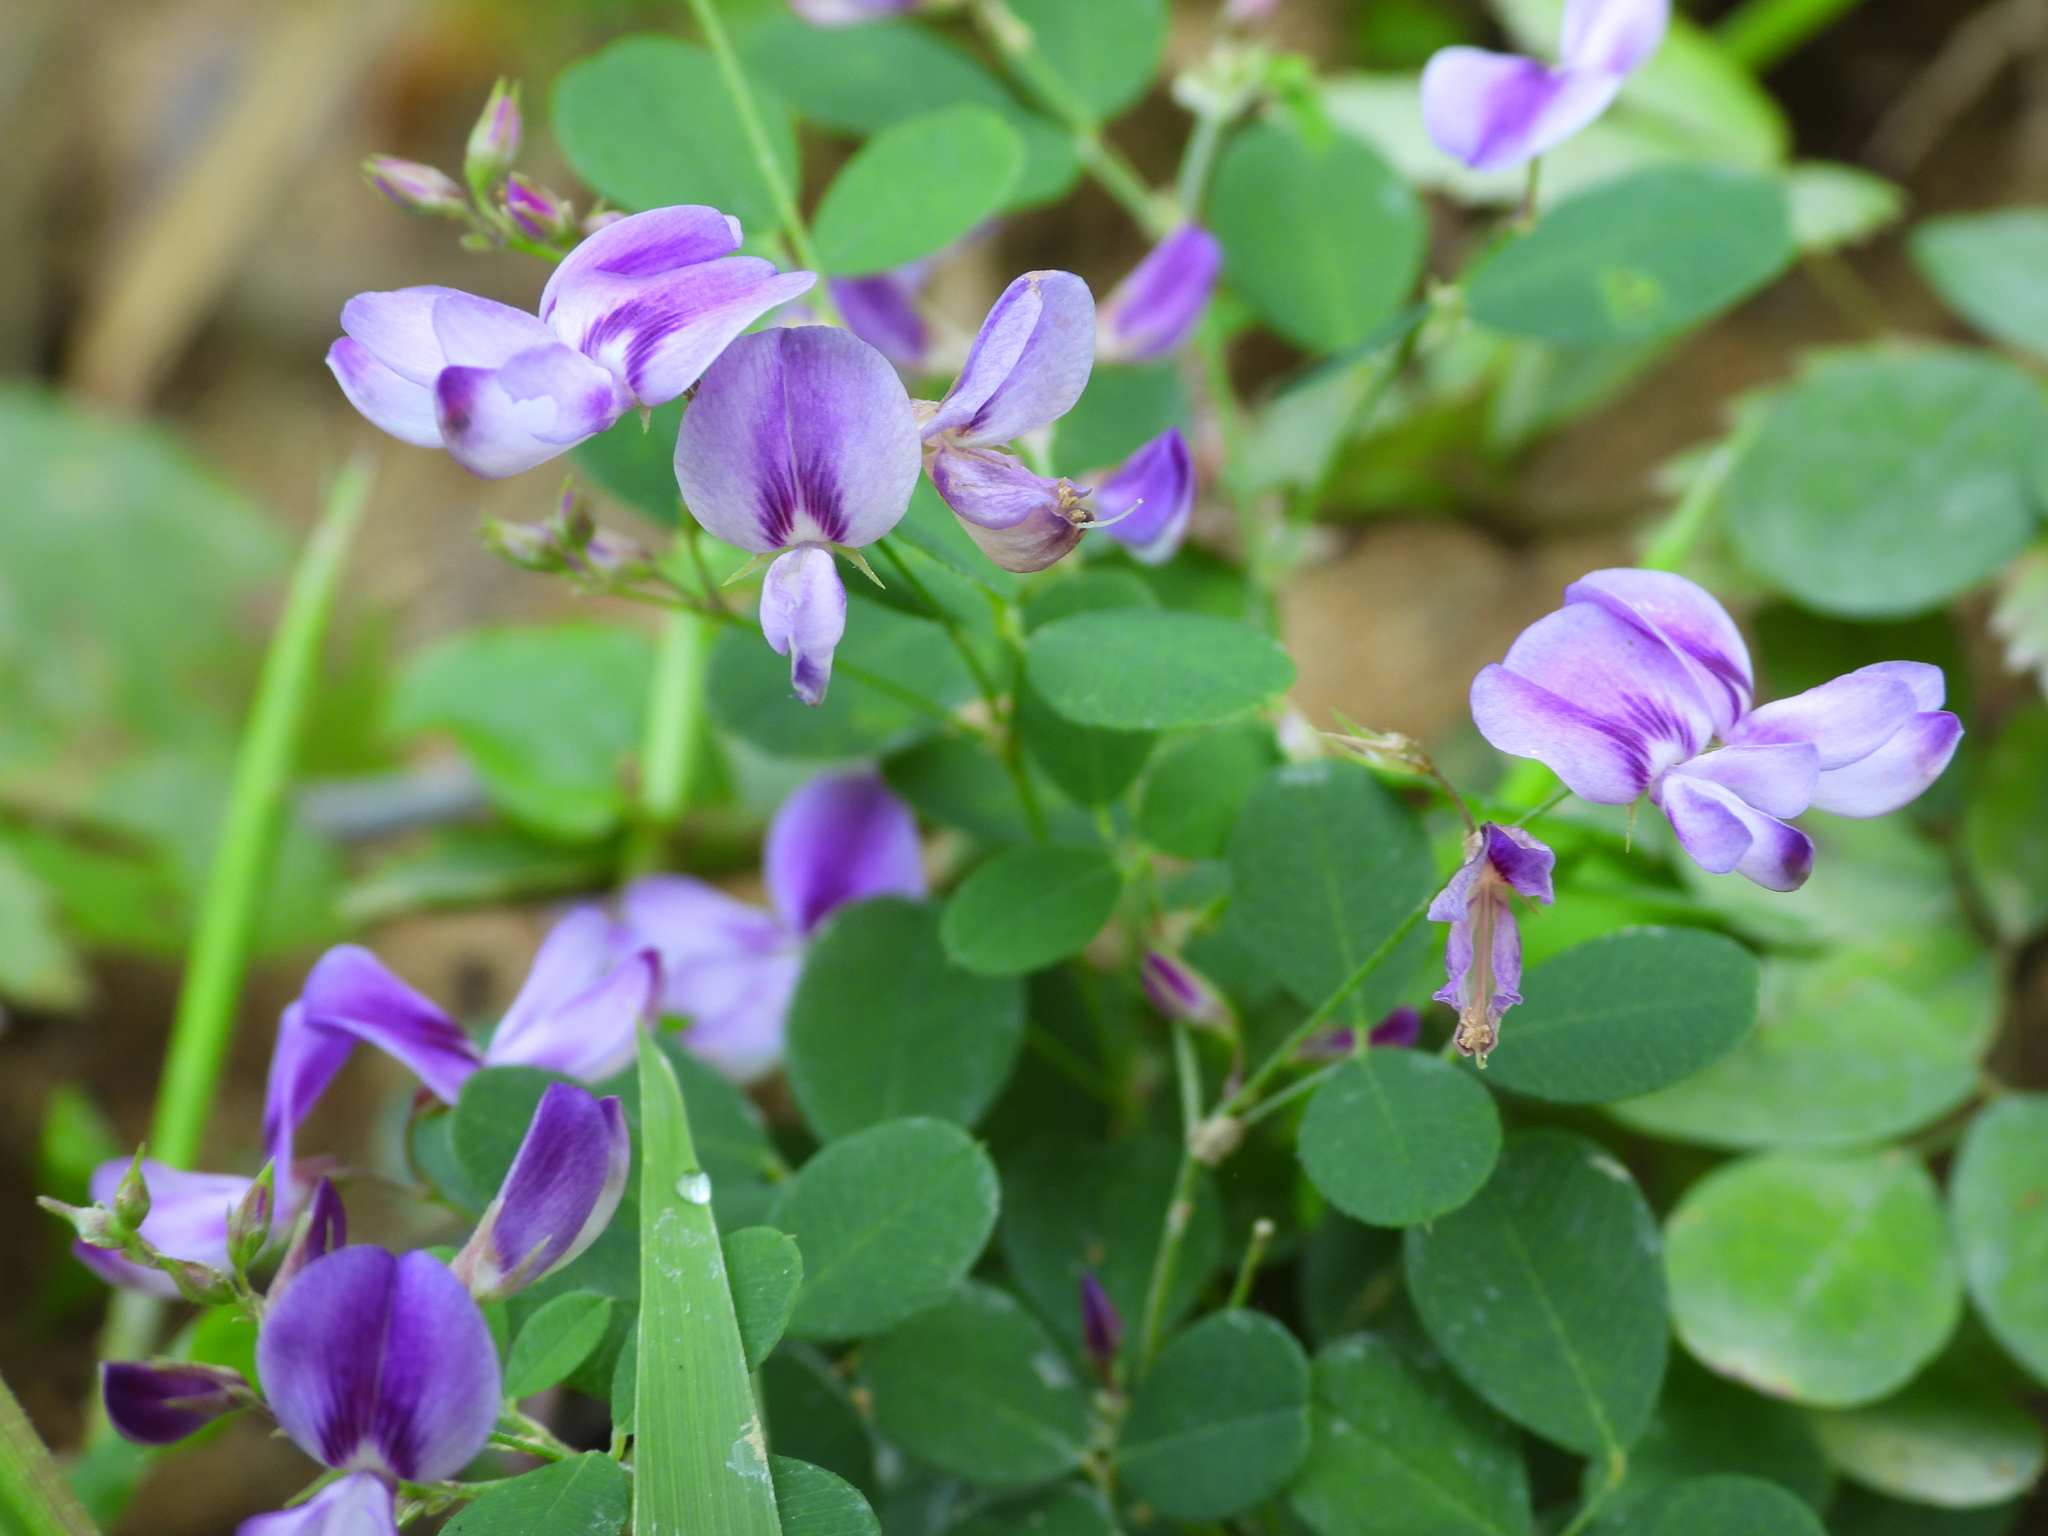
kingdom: Plantae
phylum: Tracheophyta
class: Magnoliopsida
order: Fabales
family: Fabaceae
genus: Lespedeza
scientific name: Lespedeza procumbens
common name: Downy trailing bush-clover
